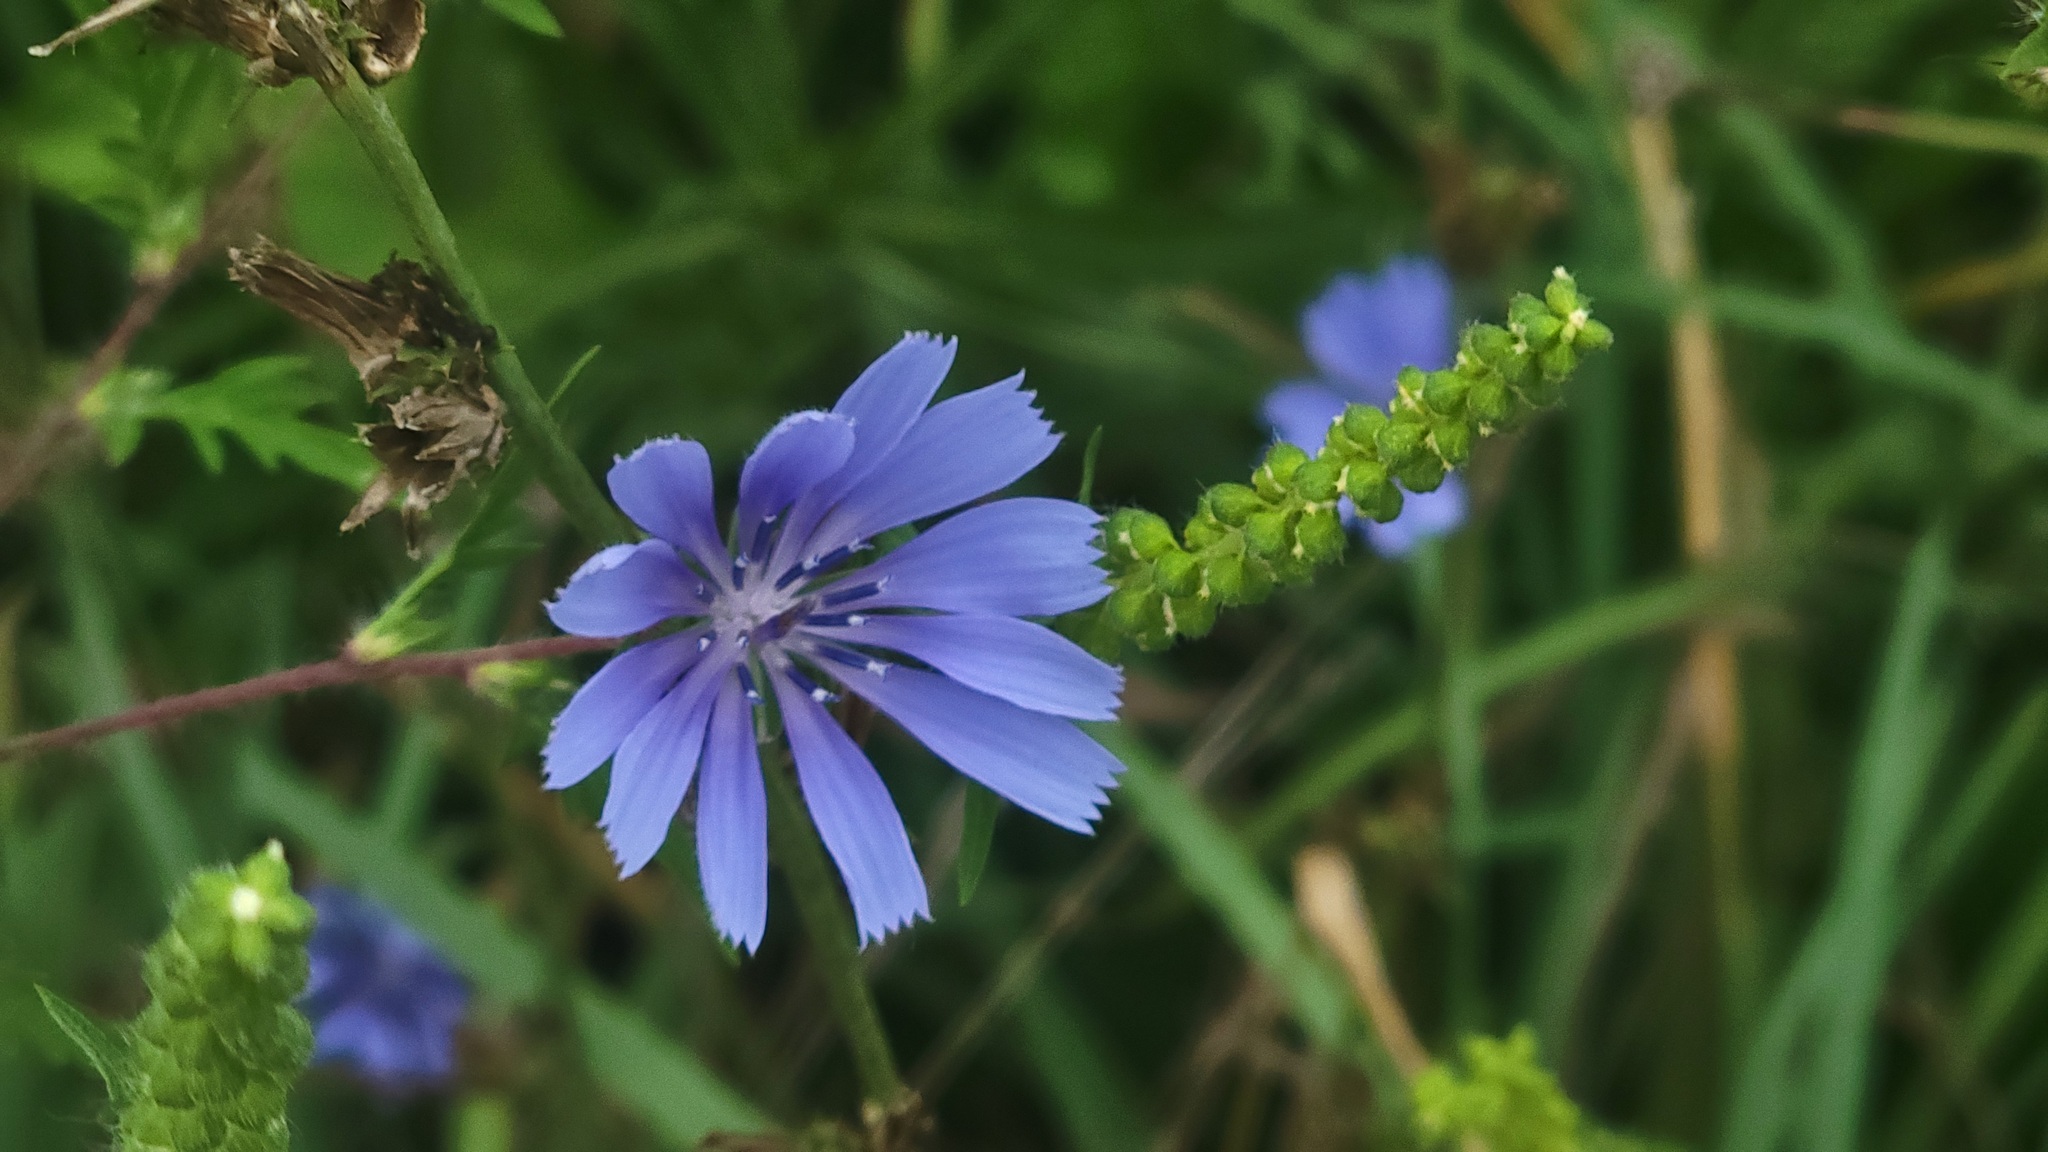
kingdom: Plantae
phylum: Tracheophyta
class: Magnoliopsida
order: Asterales
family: Asteraceae
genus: Cichorium
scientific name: Cichorium intybus
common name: Chicory
